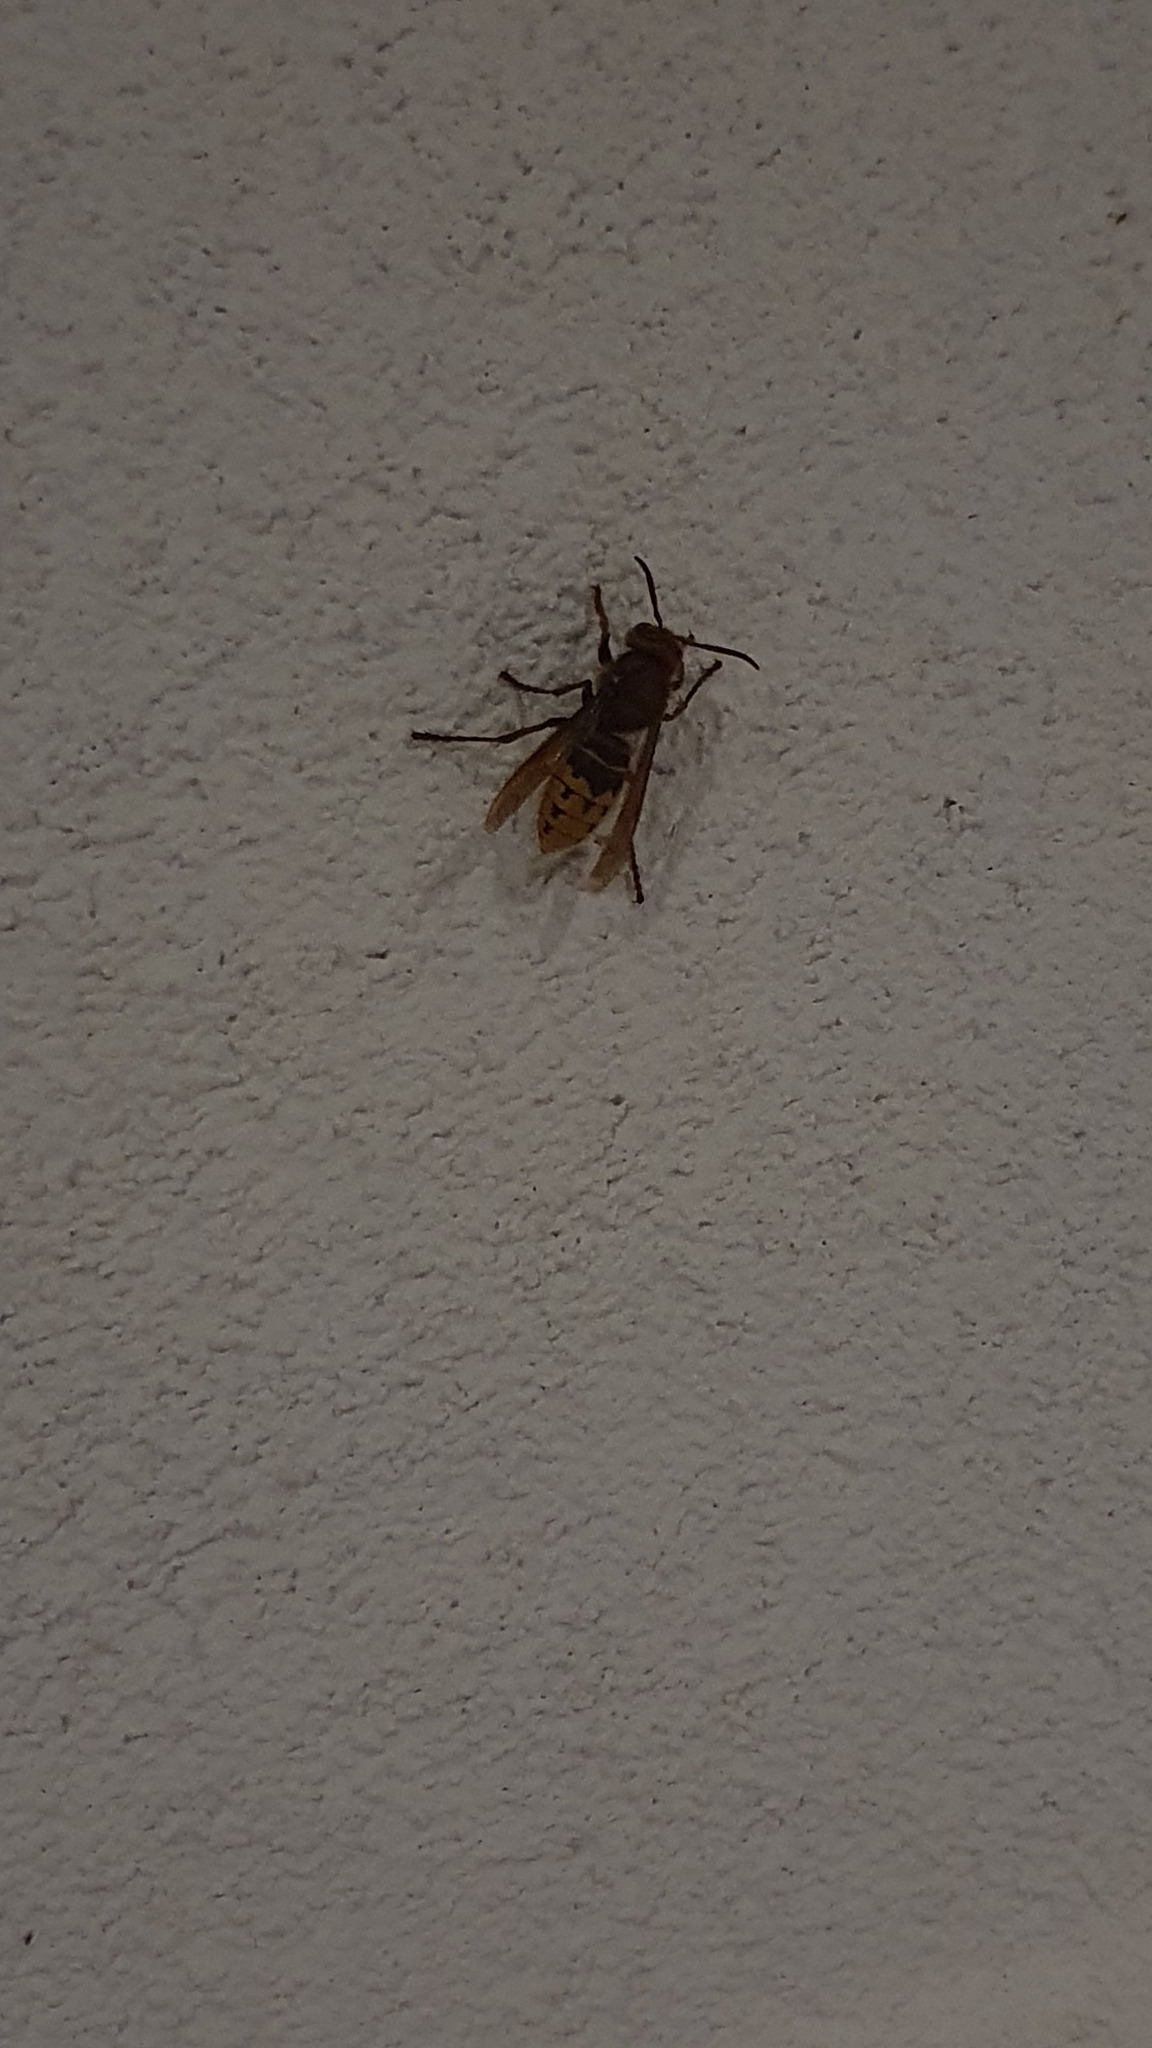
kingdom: Animalia
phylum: Arthropoda
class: Insecta
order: Hymenoptera
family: Vespidae
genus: Vespa
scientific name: Vespa crabro
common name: Hornet
